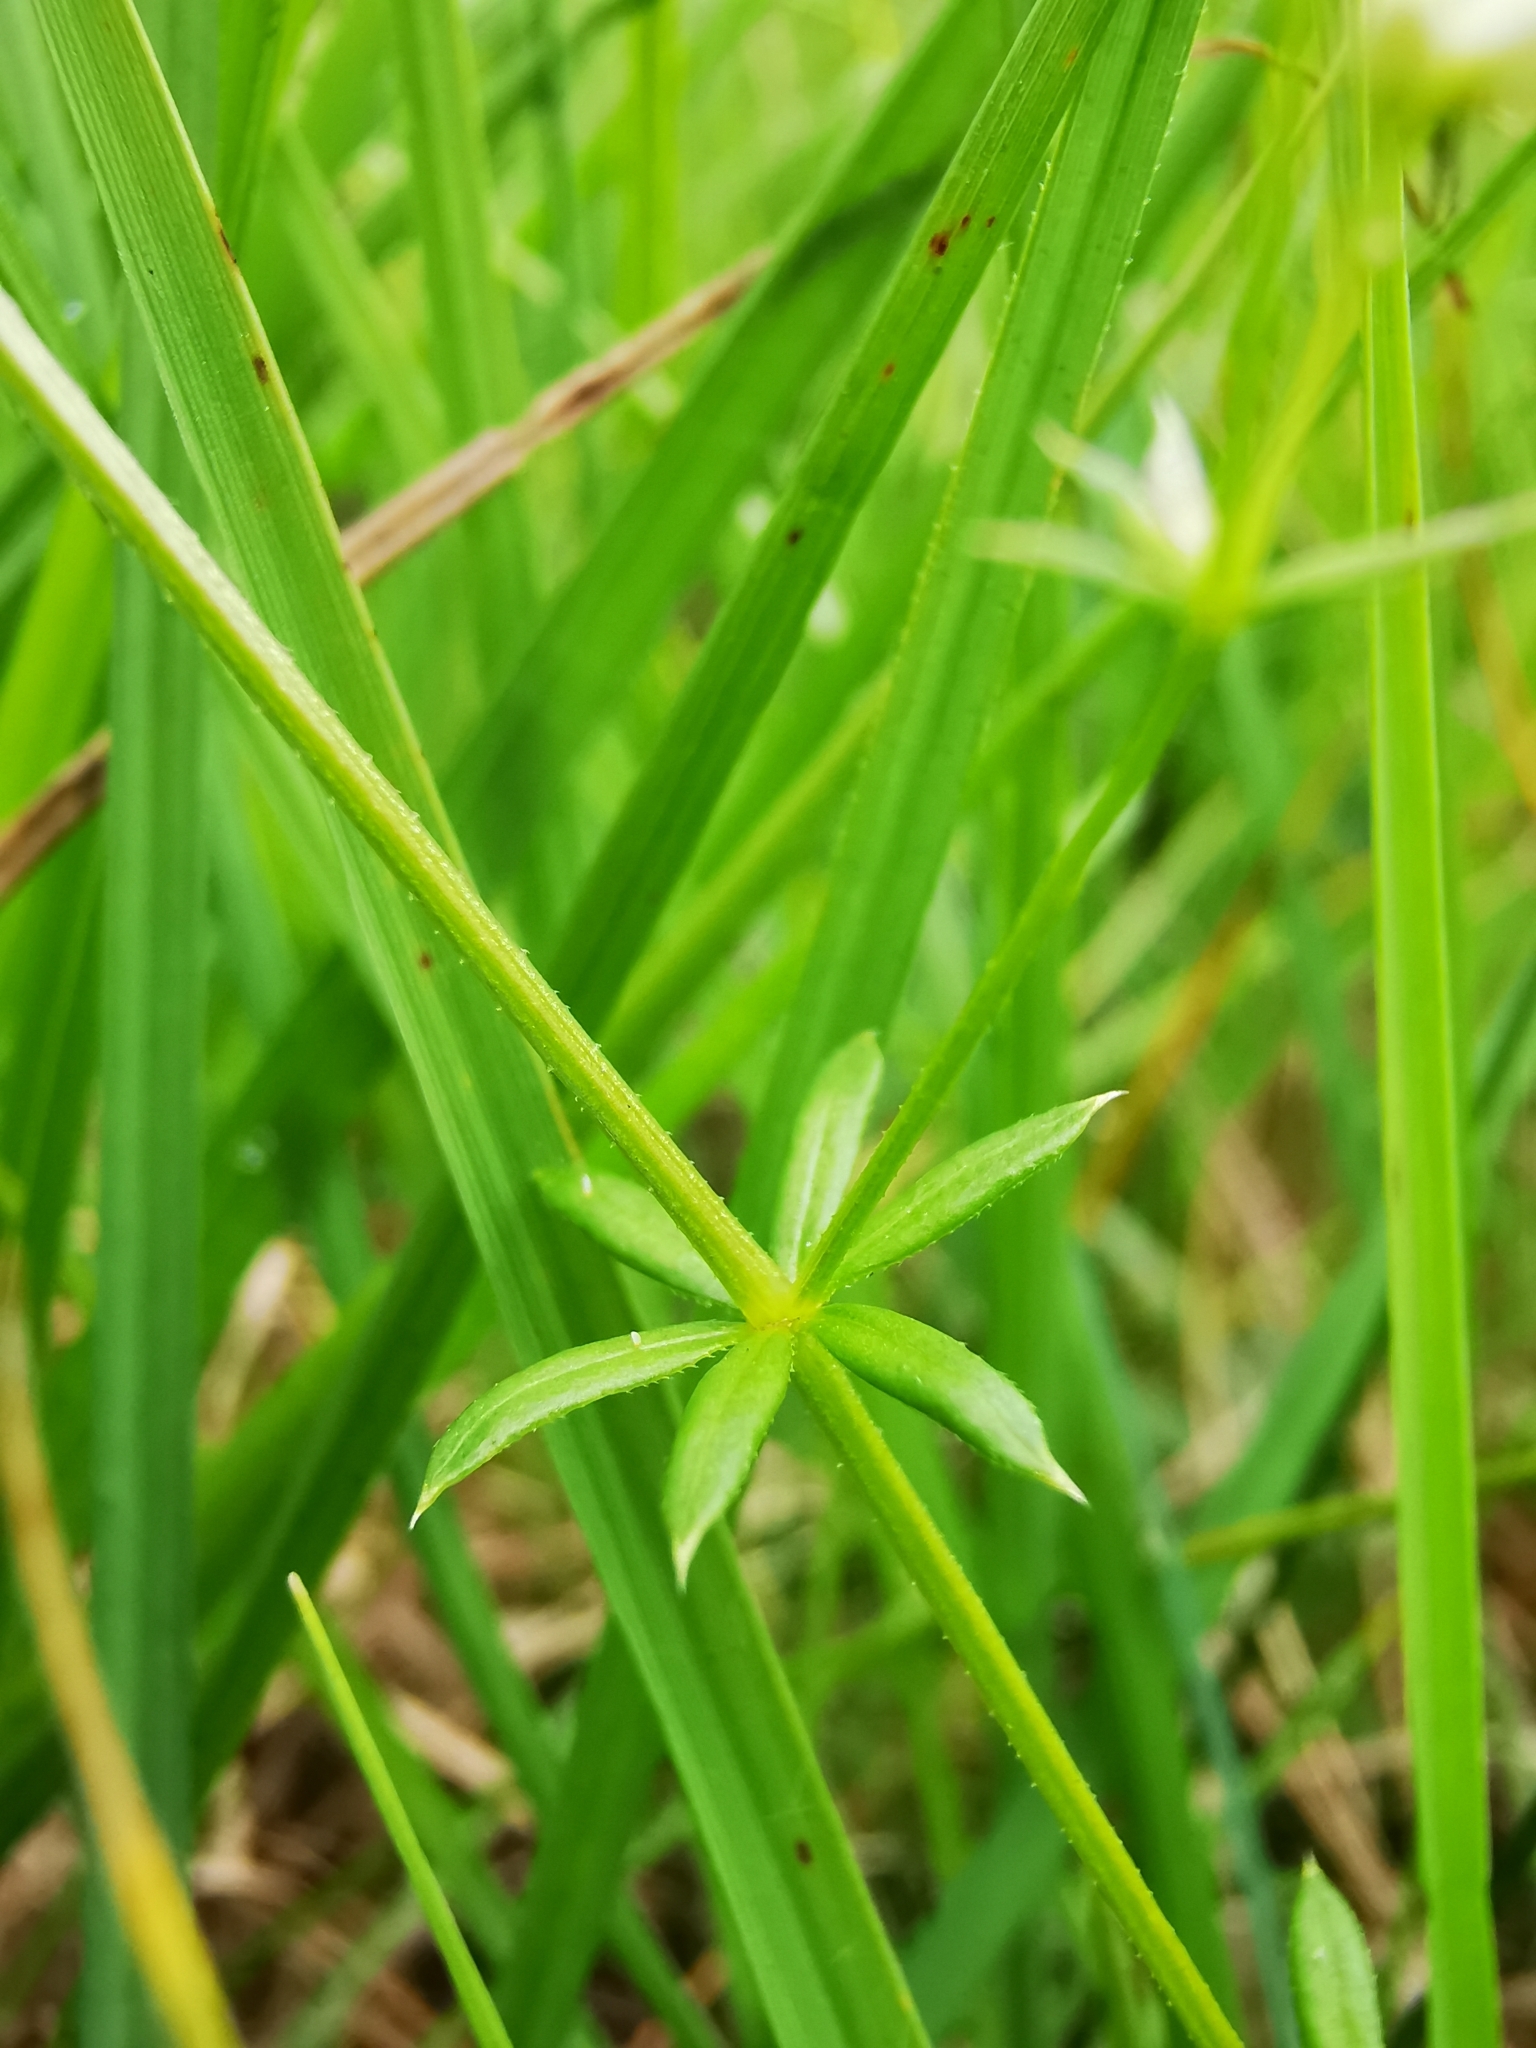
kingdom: Plantae
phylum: Tracheophyta
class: Magnoliopsida
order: Gentianales
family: Rubiaceae
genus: Galium
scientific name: Galium uliginosum
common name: Fen bedstraw
